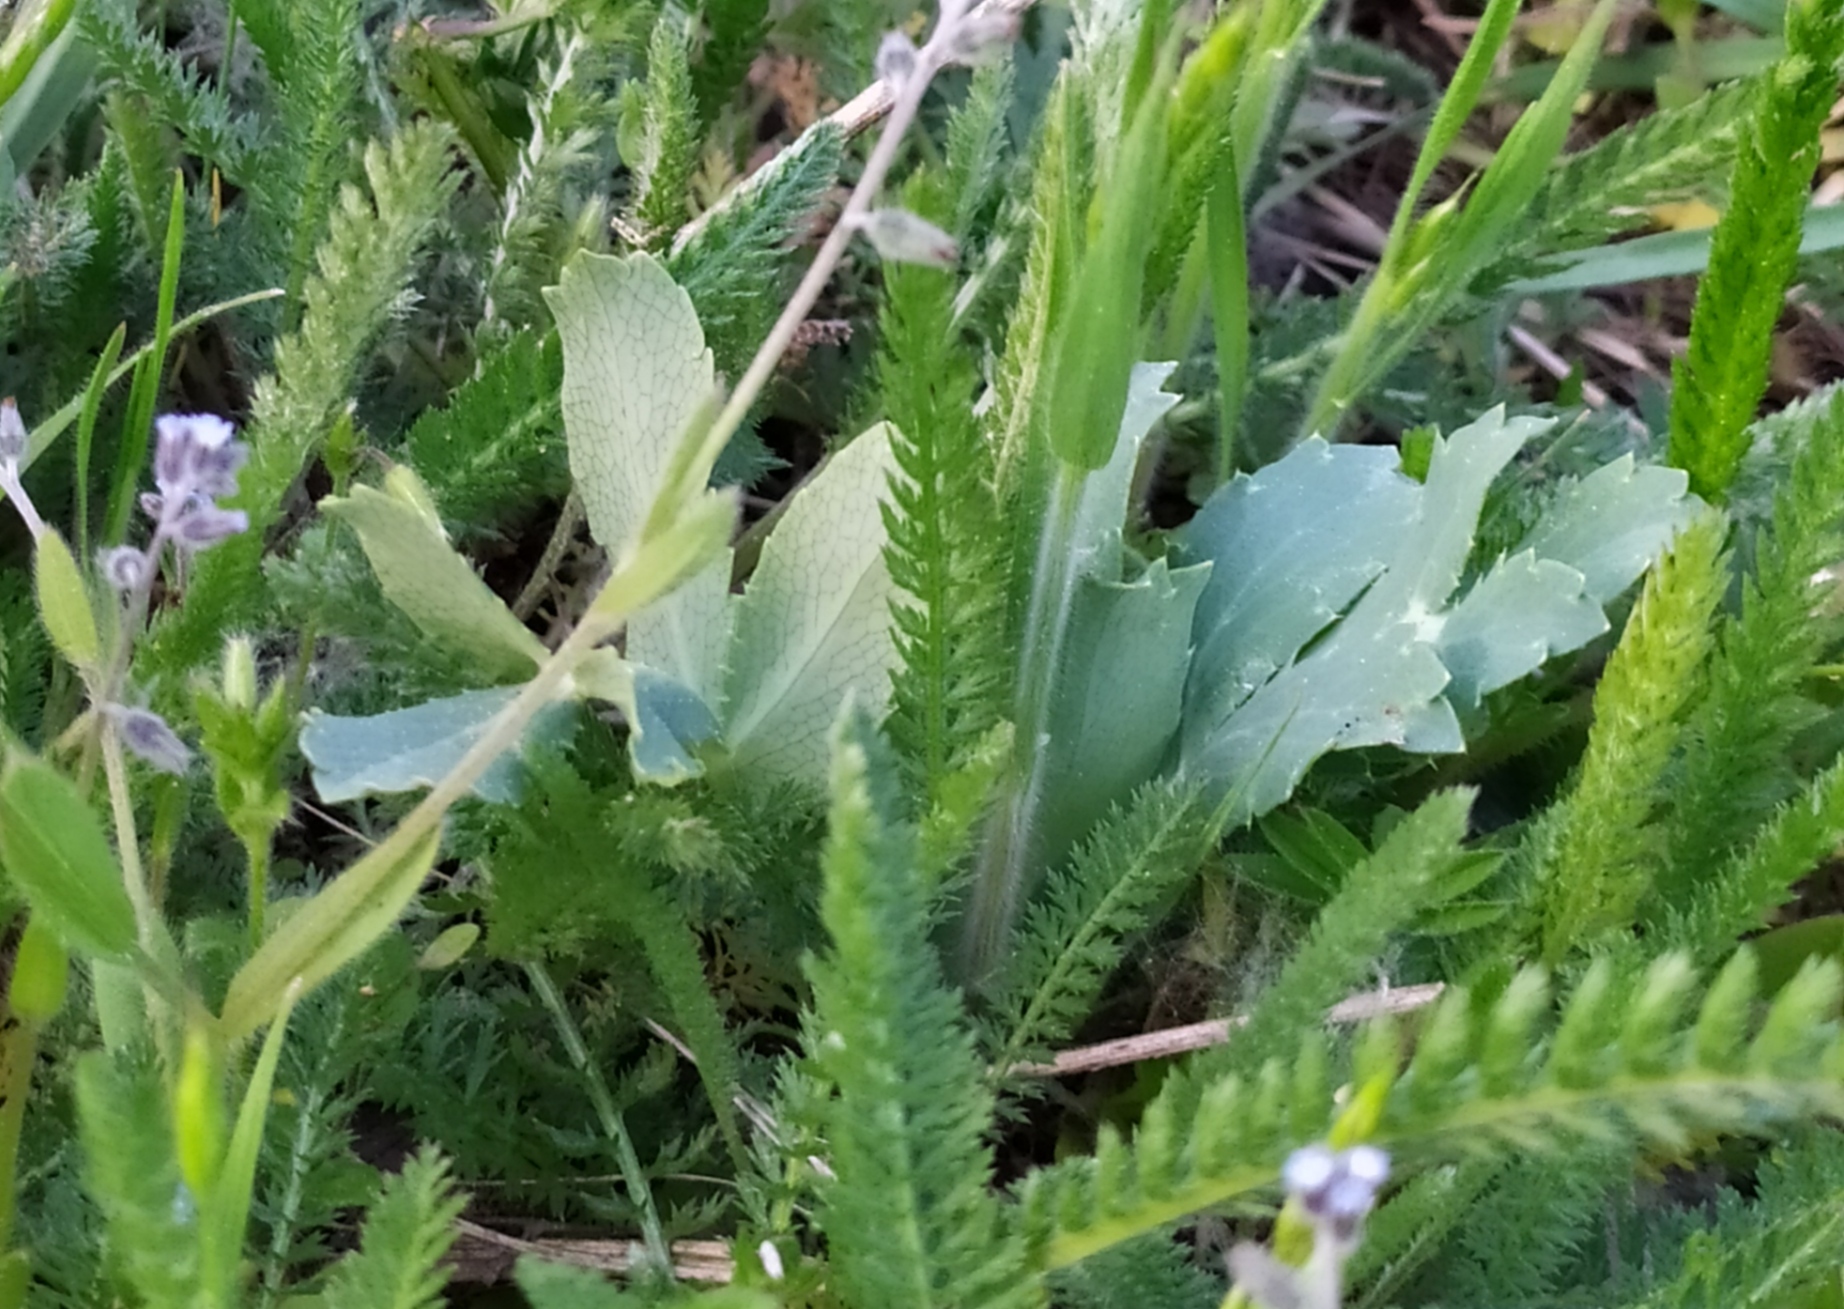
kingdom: Plantae
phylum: Tracheophyta
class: Magnoliopsida
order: Apiales
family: Apiaceae
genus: Eryngium
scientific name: Eryngium campestre
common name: Field eryngo
